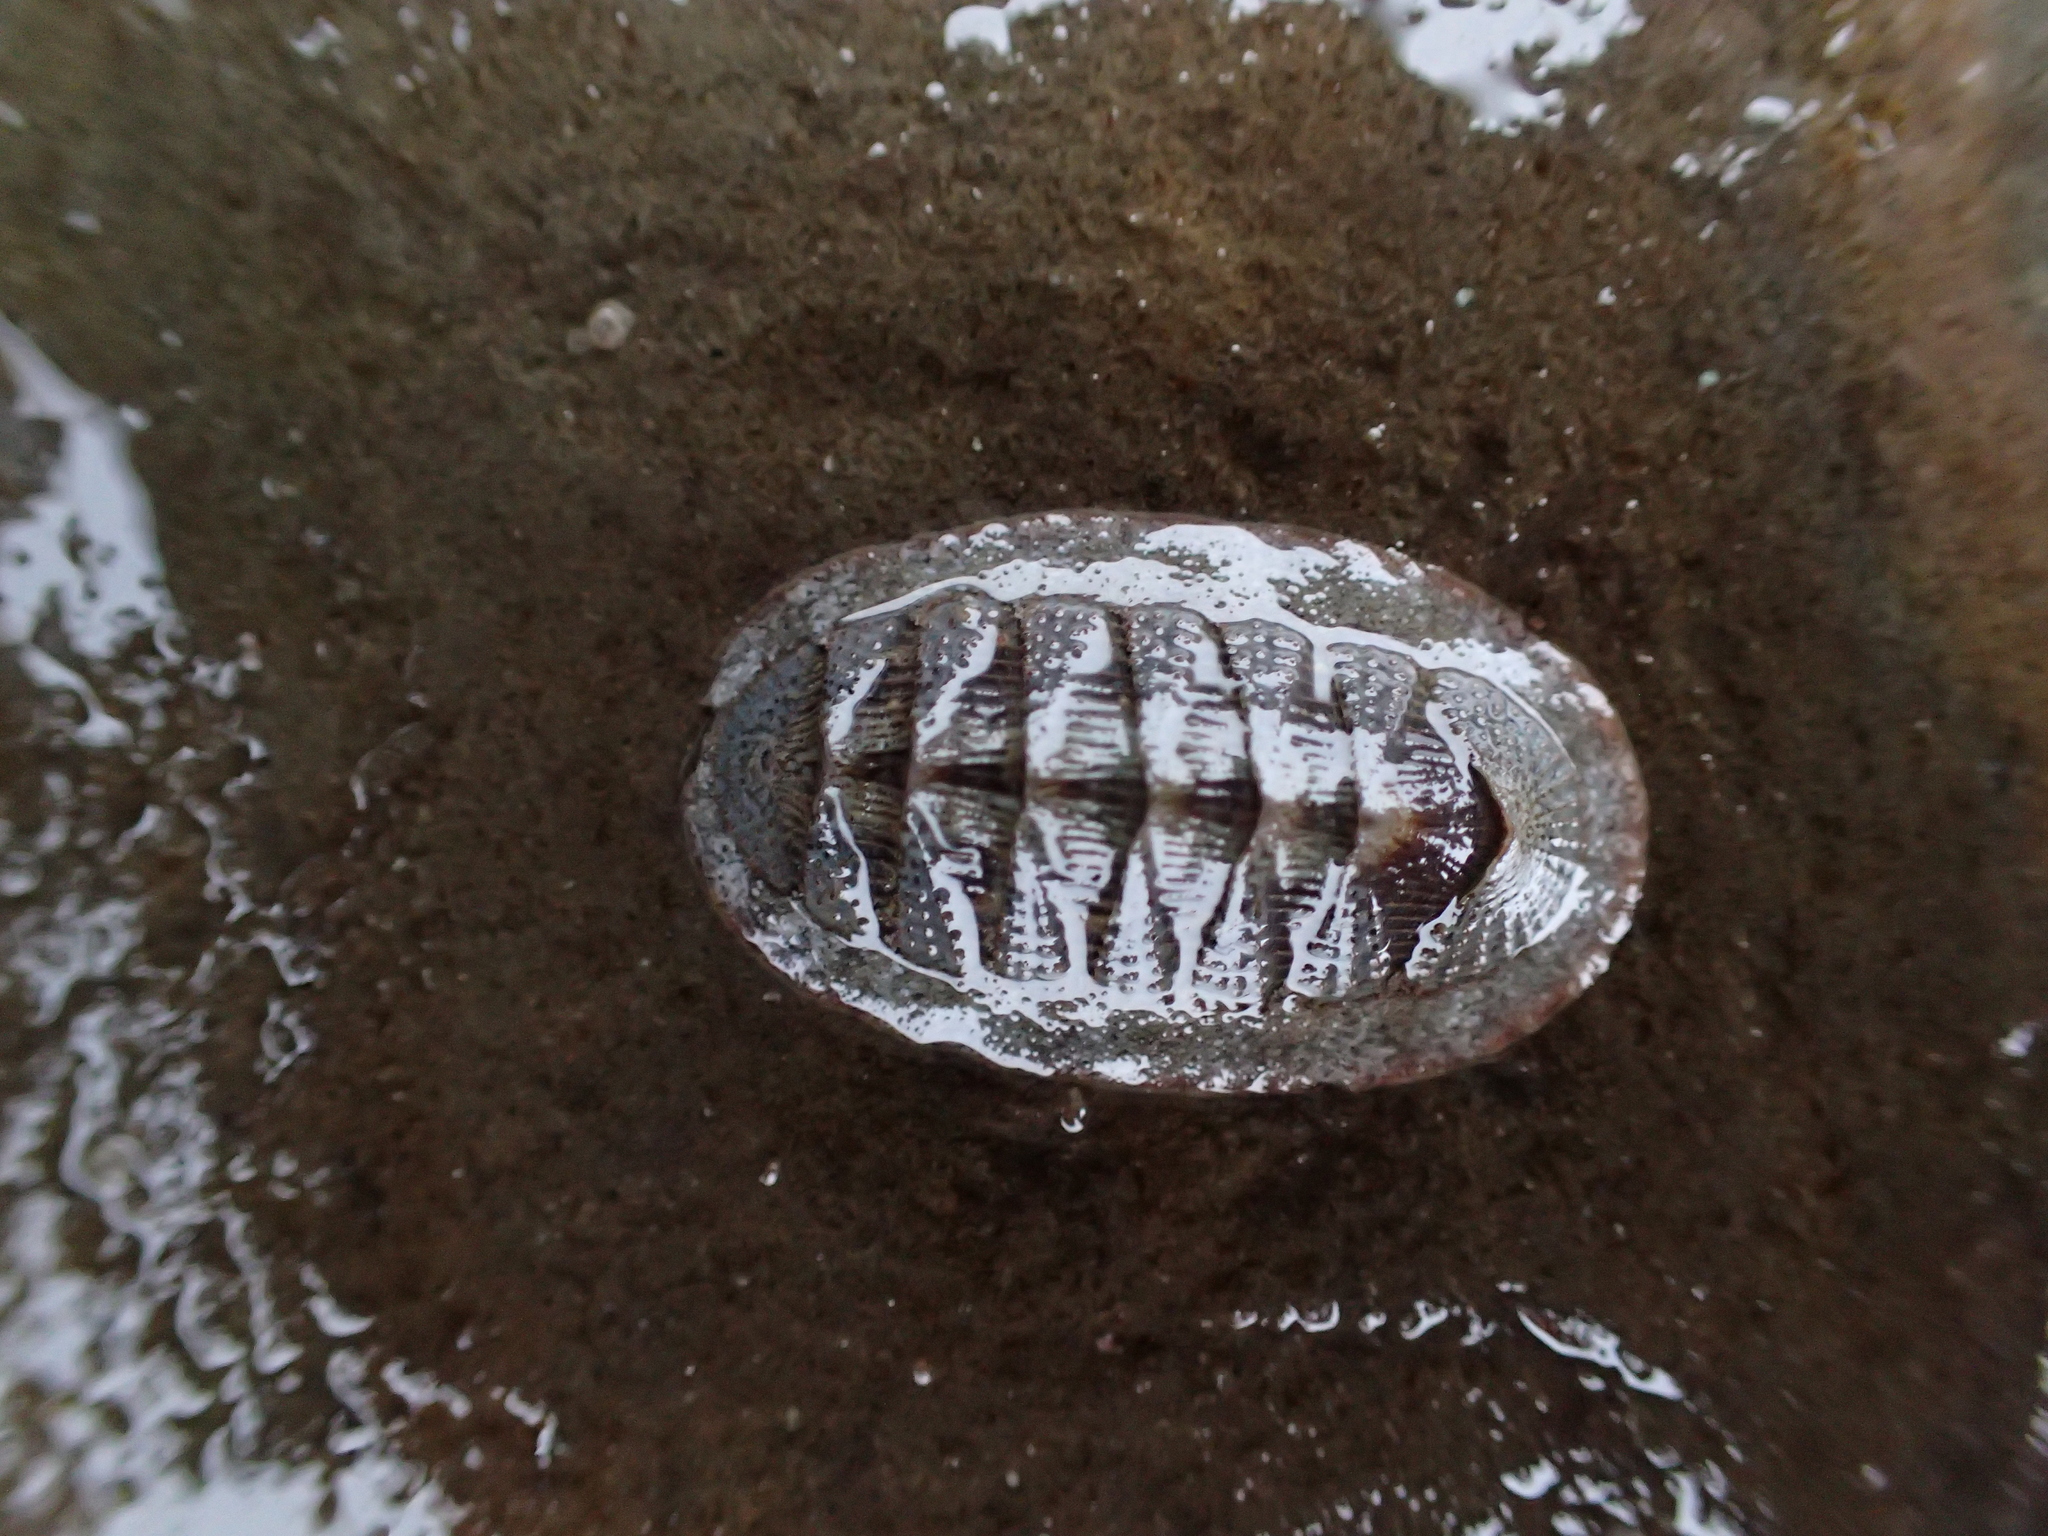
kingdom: Animalia
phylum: Mollusca
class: Polyplacophora
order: Chitonida
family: Ischnochitonidae
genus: Lepidozona
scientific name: Lepidozona cooperi
